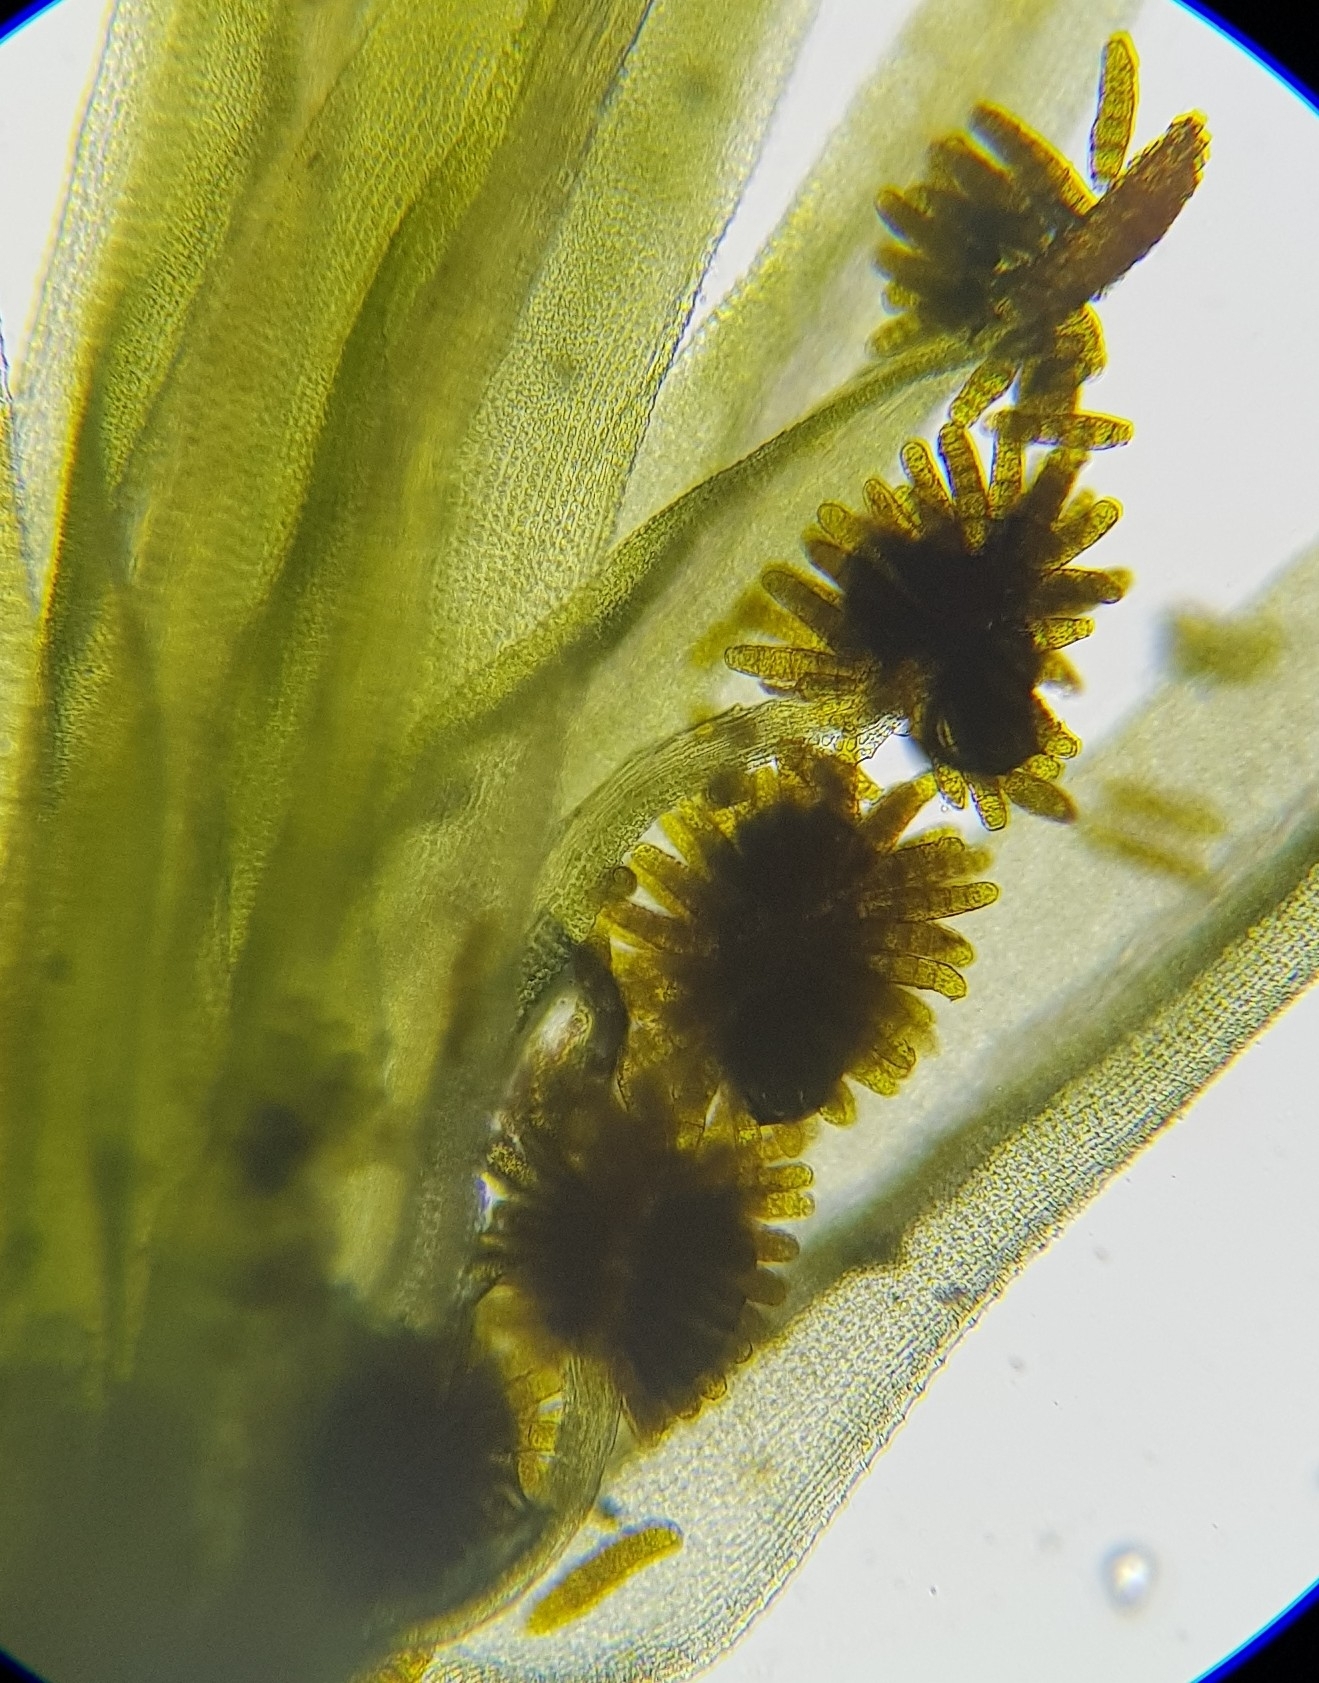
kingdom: Plantae
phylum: Bryophyta
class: Bryopsida
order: Orthotrichales
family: Orthotrichaceae
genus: Plenogemma
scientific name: Plenogemma phyllantha
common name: Frizzled pincushion
